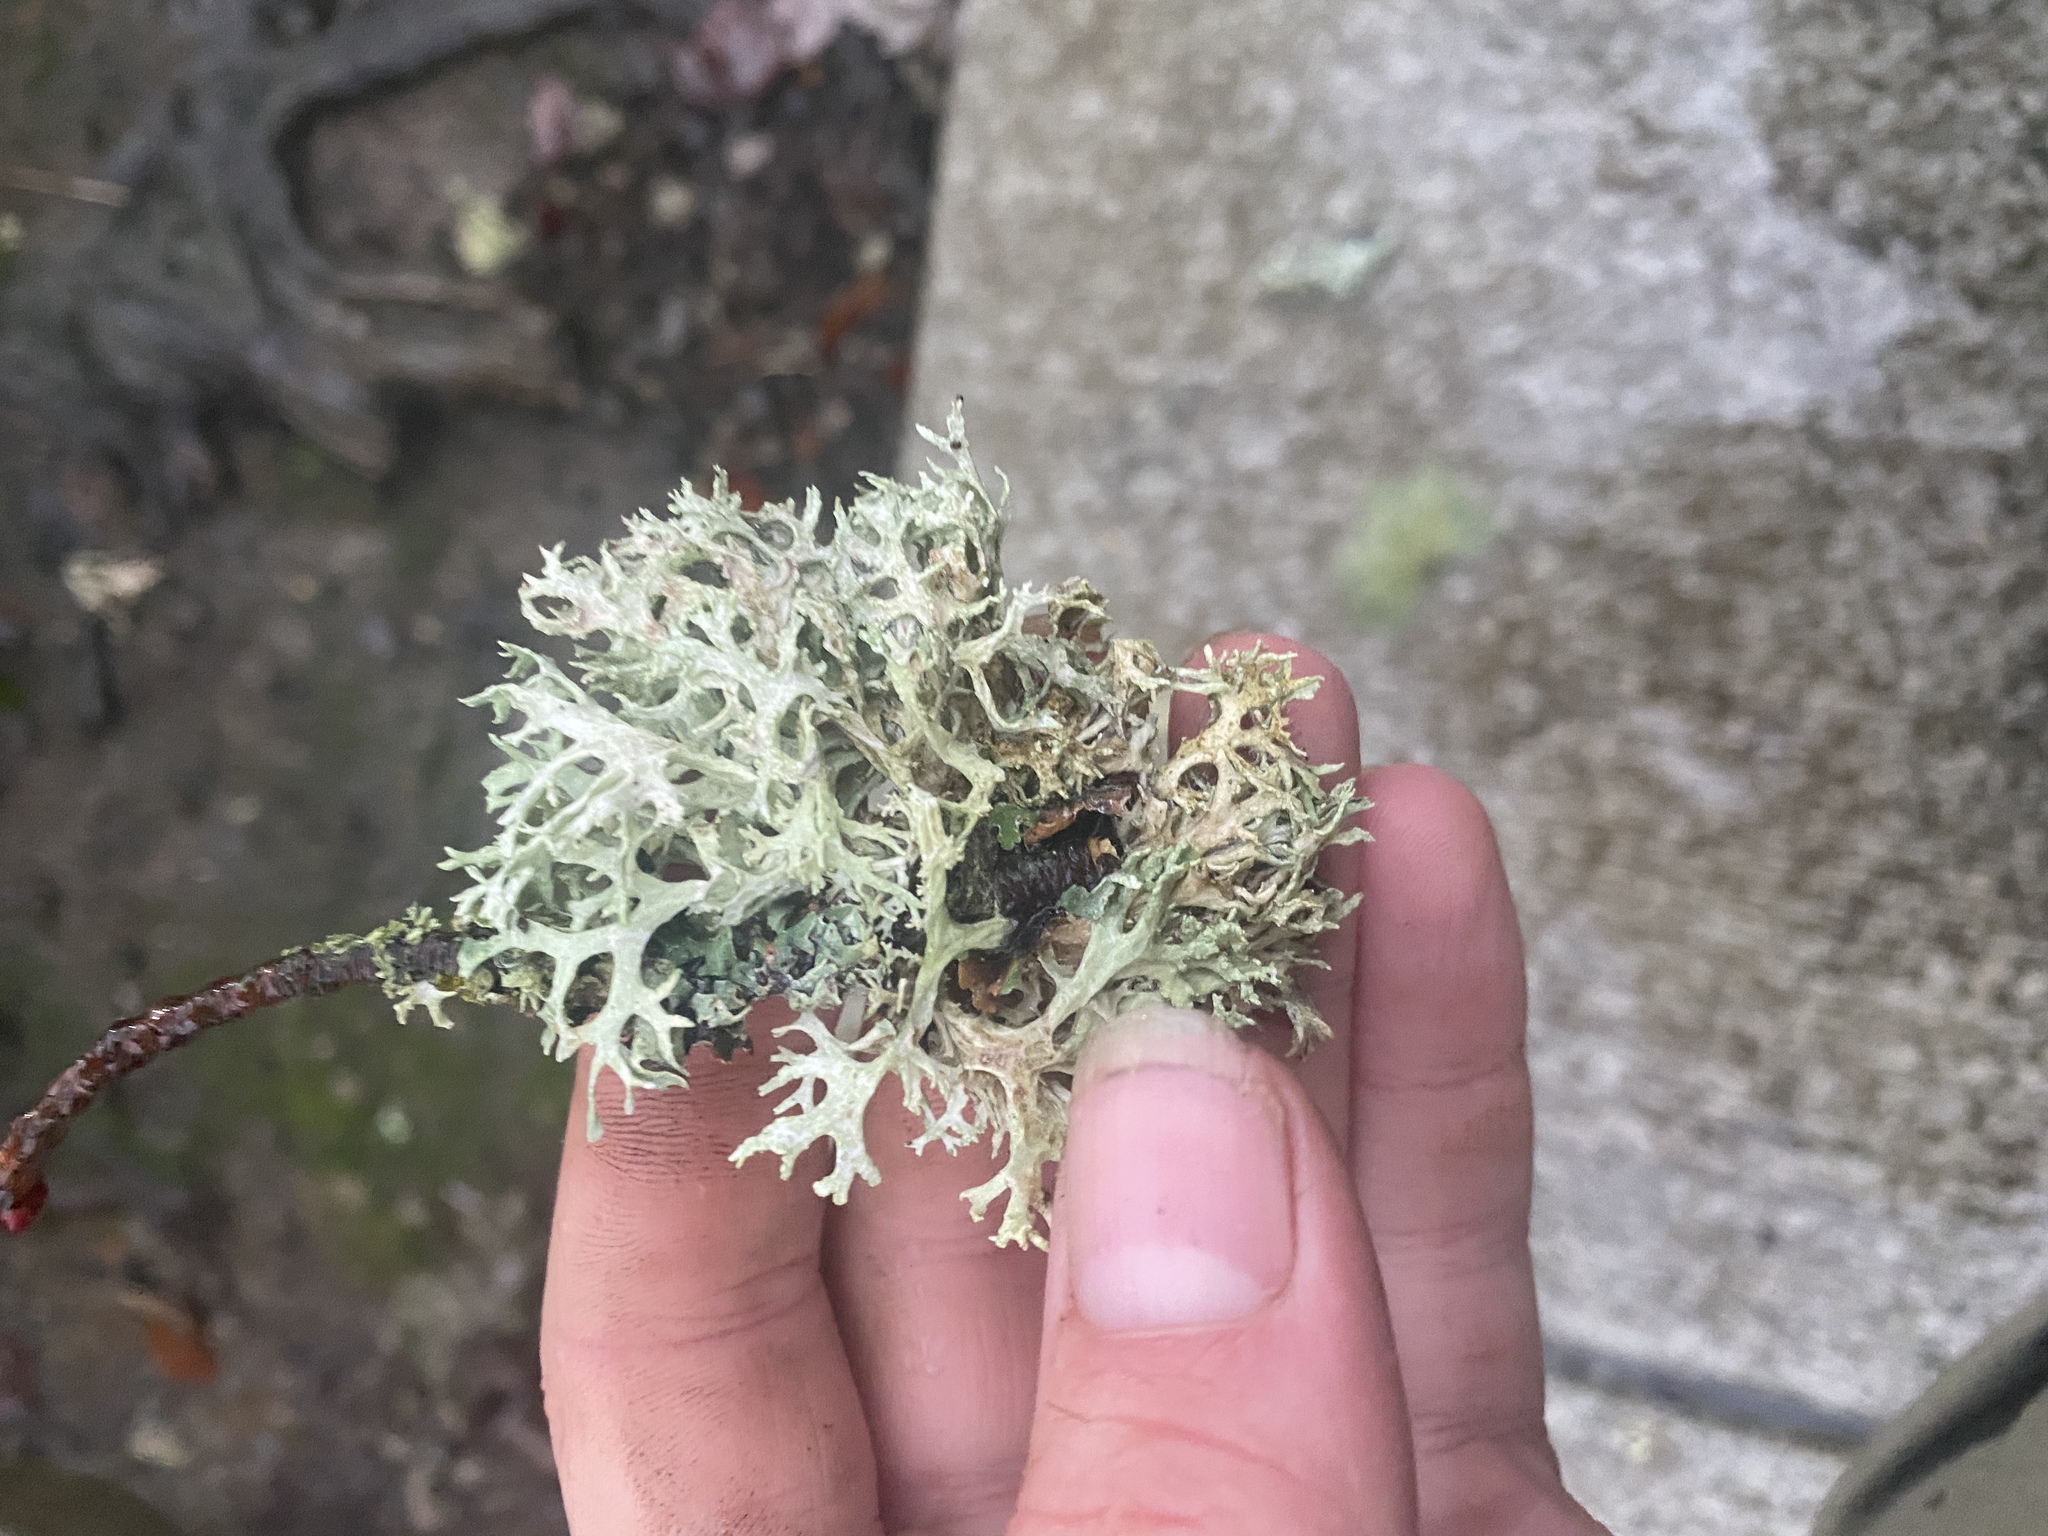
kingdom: Fungi
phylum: Ascomycota
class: Lecanoromycetes
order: Lecanorales
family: Parmeliaceae
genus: Evernia
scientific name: Evernia prunastri
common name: Oak moss
